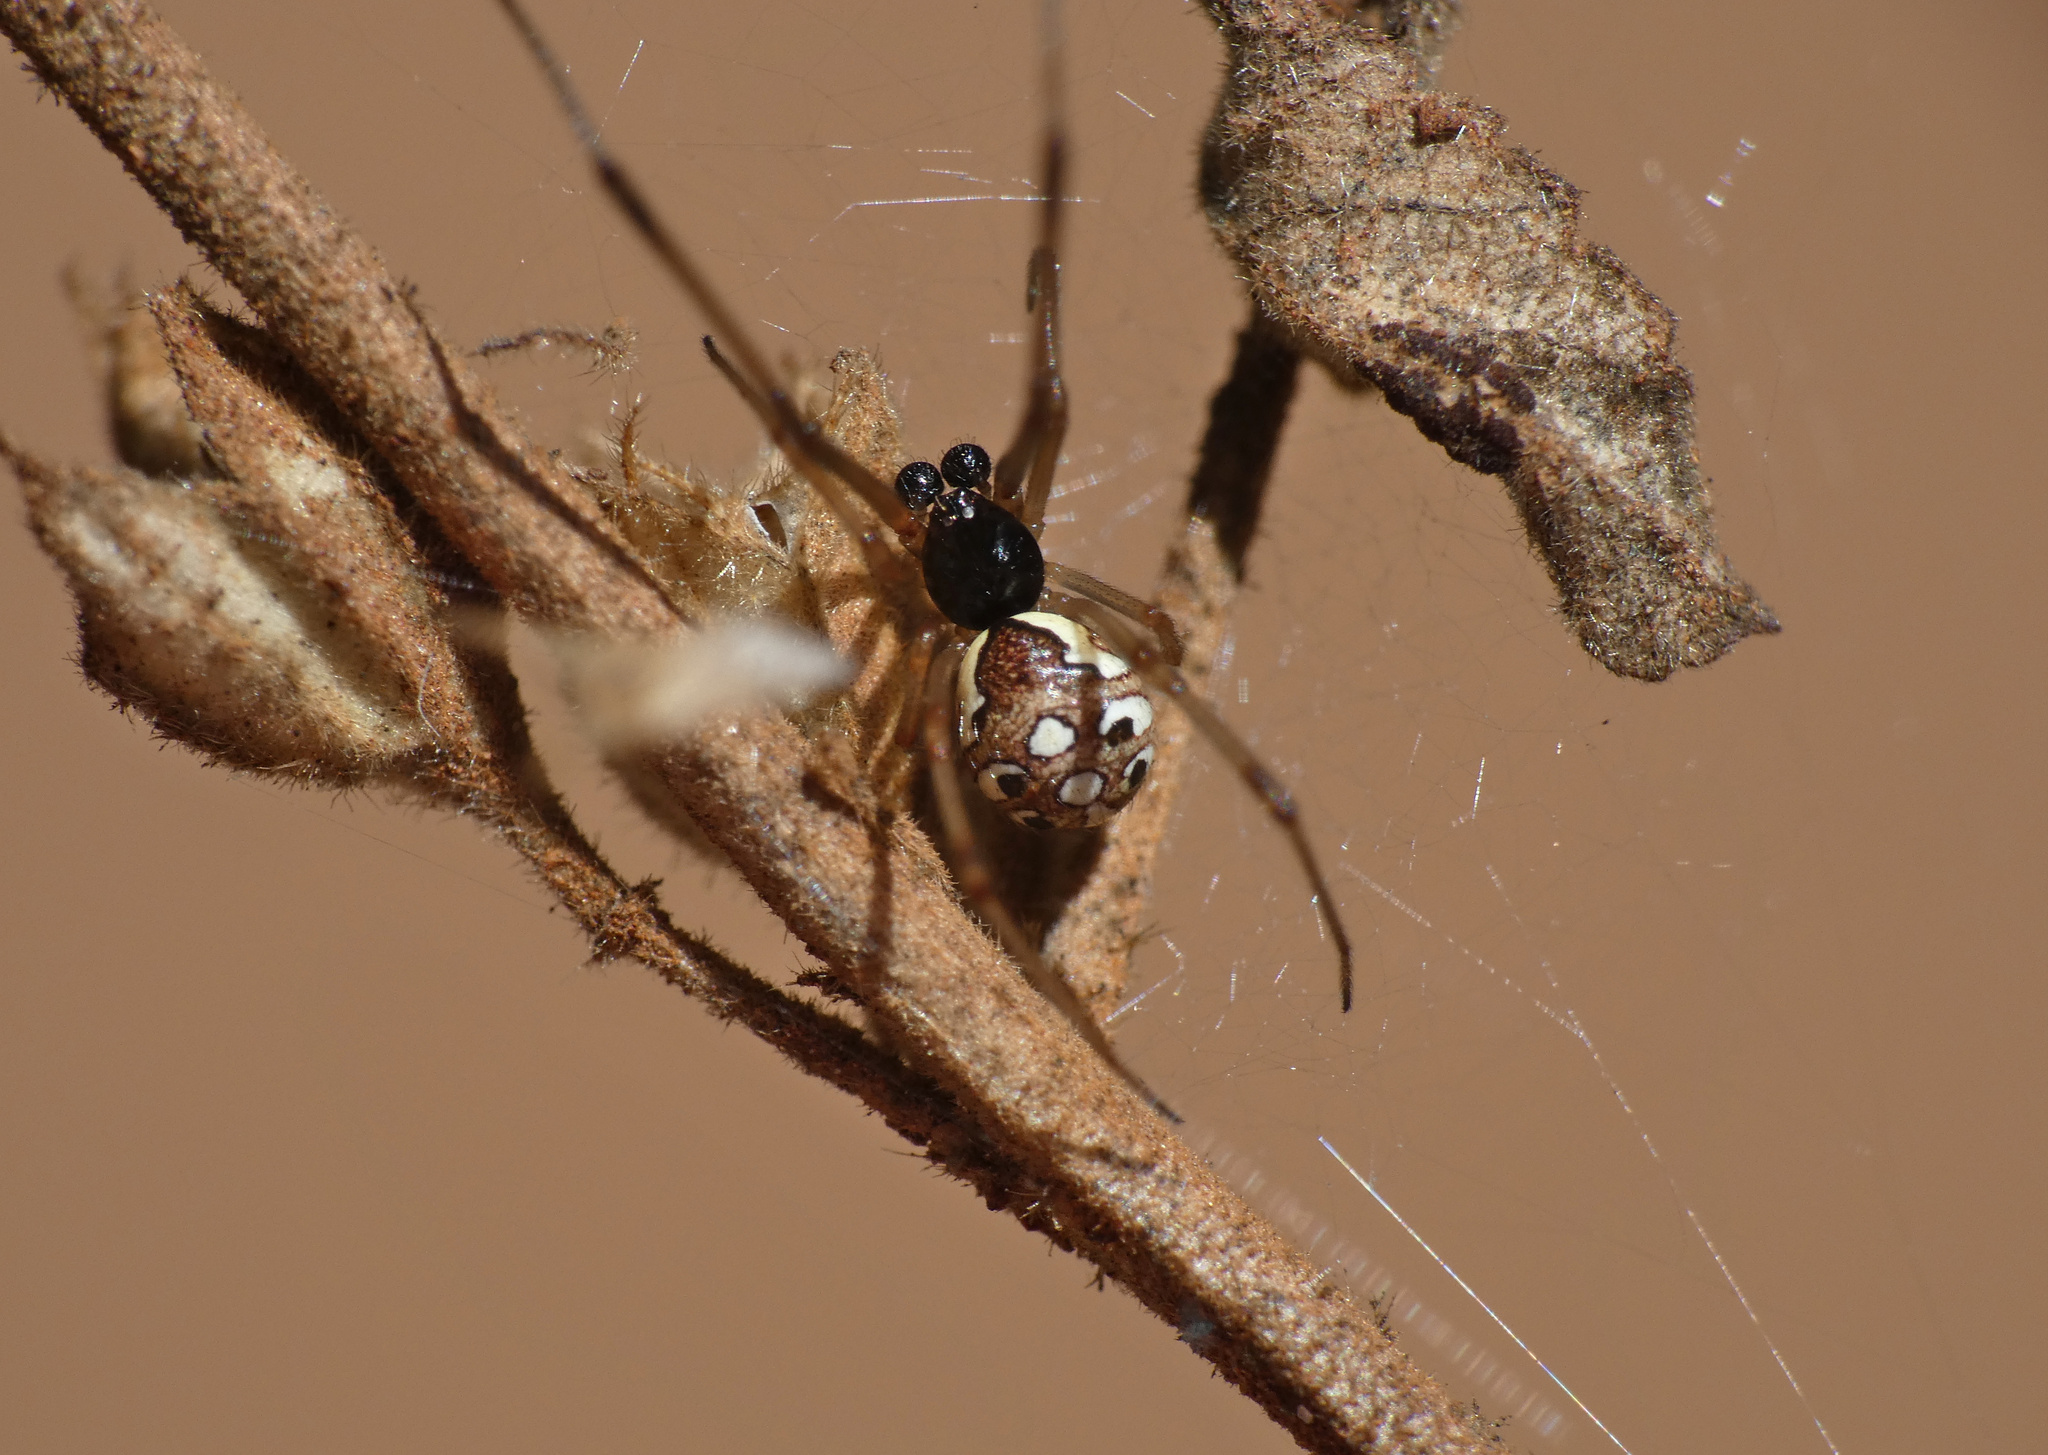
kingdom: Animalia
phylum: Arthropoda
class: Arachnida
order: Araneae
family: Theridiidae
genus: Latrodectus
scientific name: Latrodectus geometricus
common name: Brown widow spider
